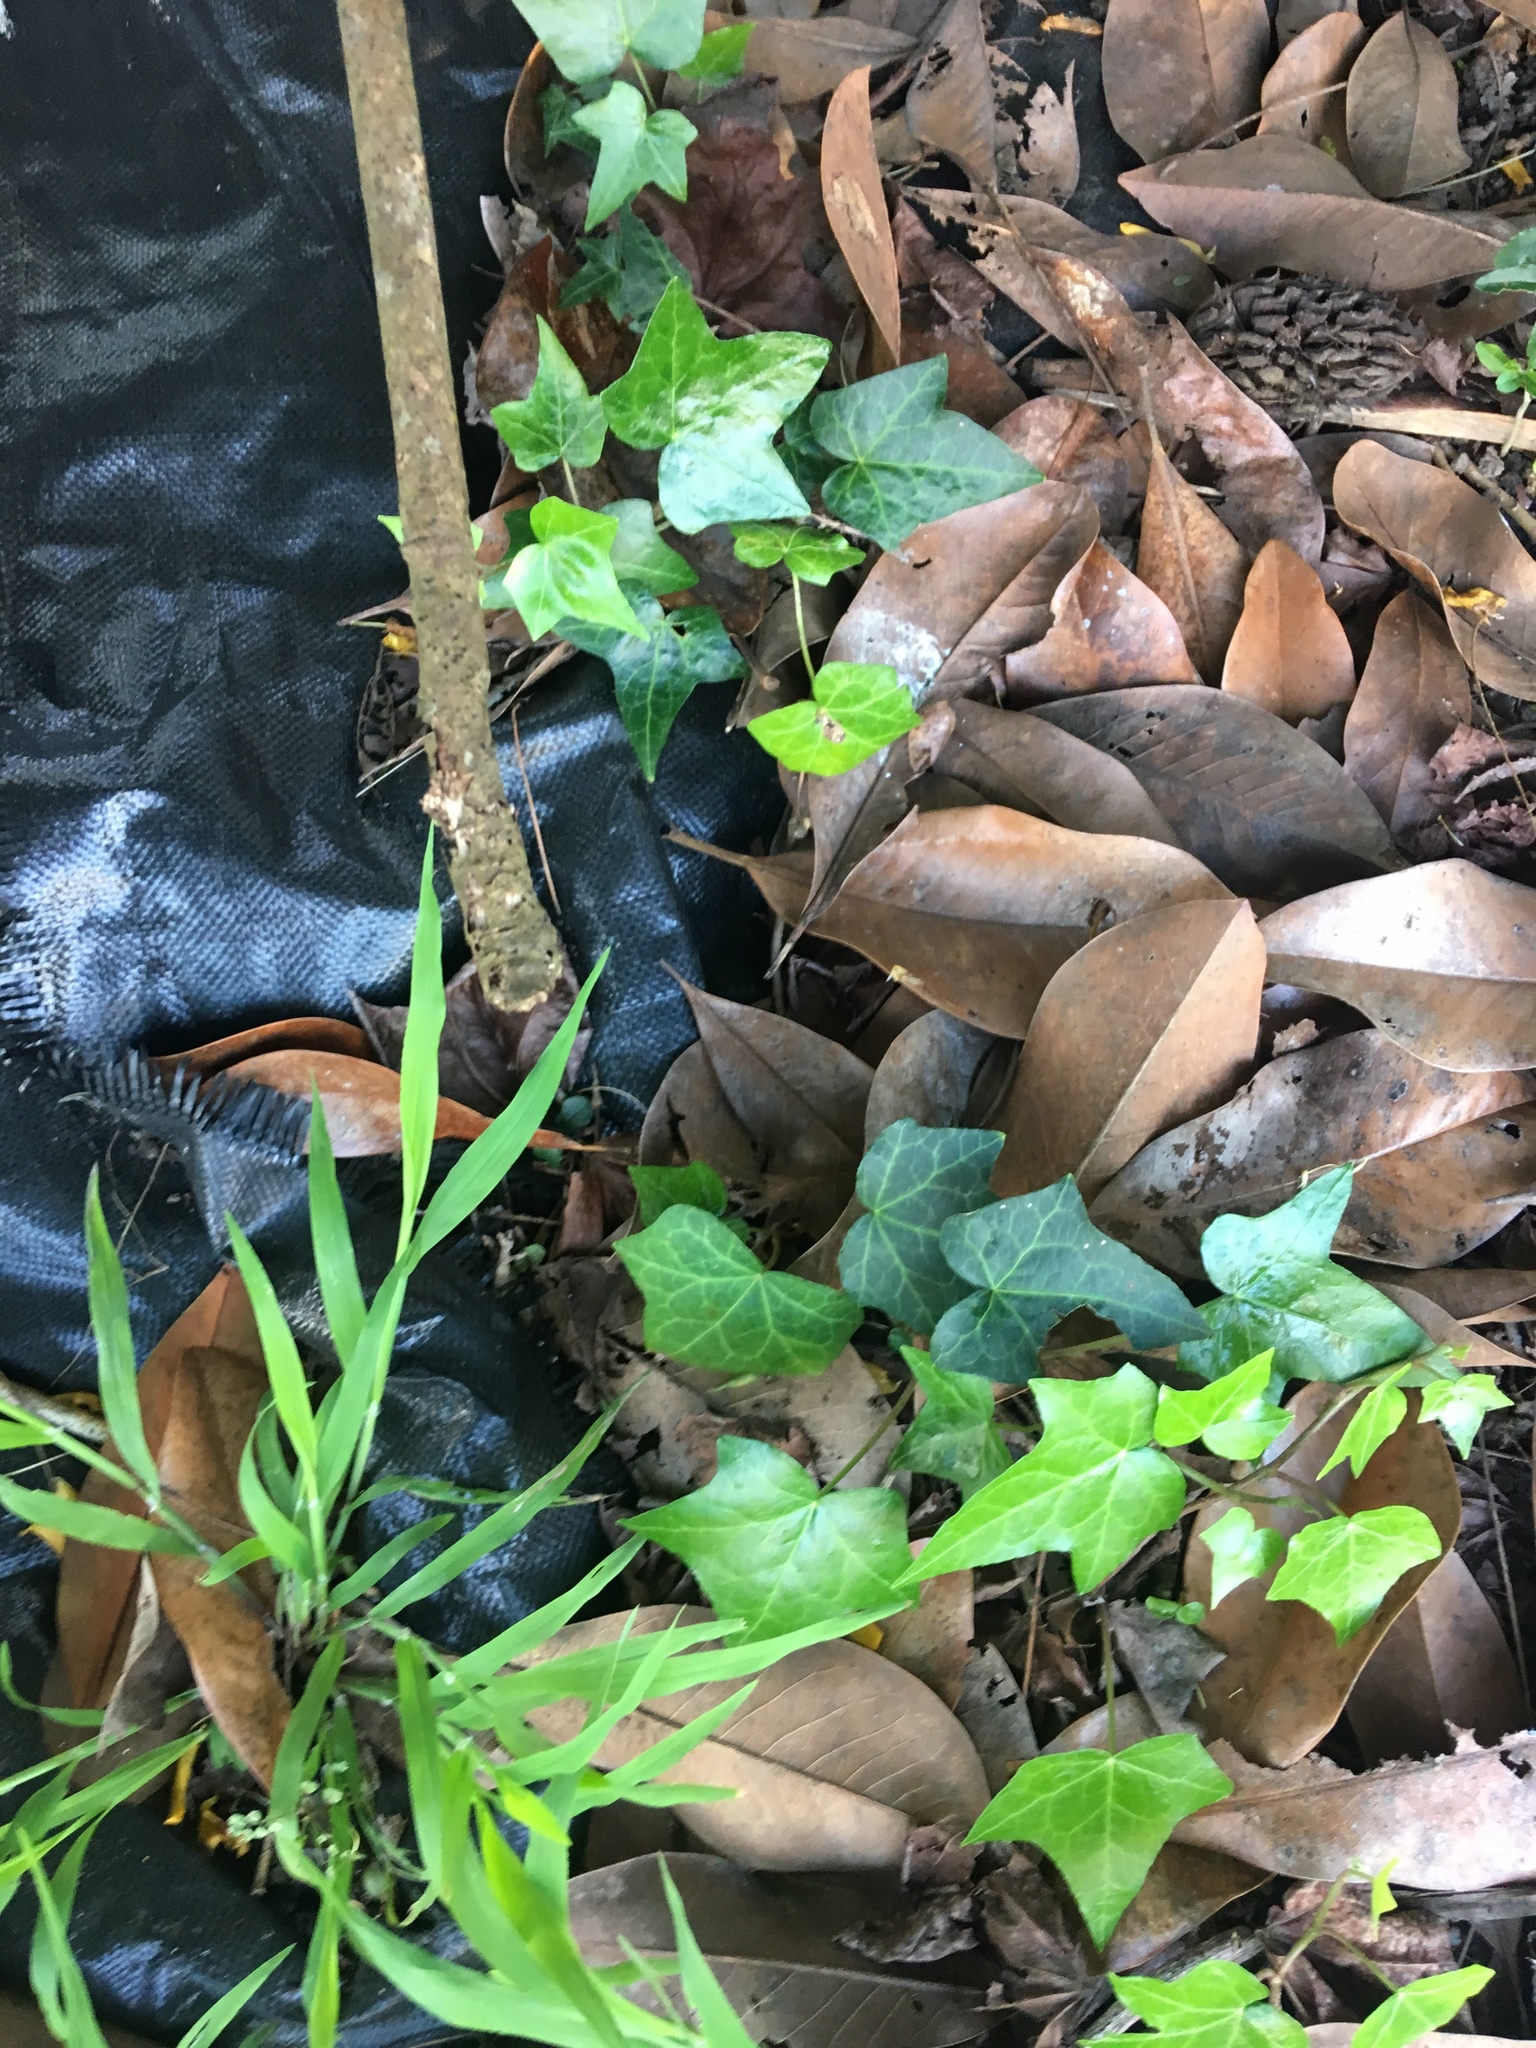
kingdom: Plantae
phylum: Tracheophyta
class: Magnoliopsida
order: Apiales
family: Araliaceae
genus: Hedera
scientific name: Hedera helix
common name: Ivy
